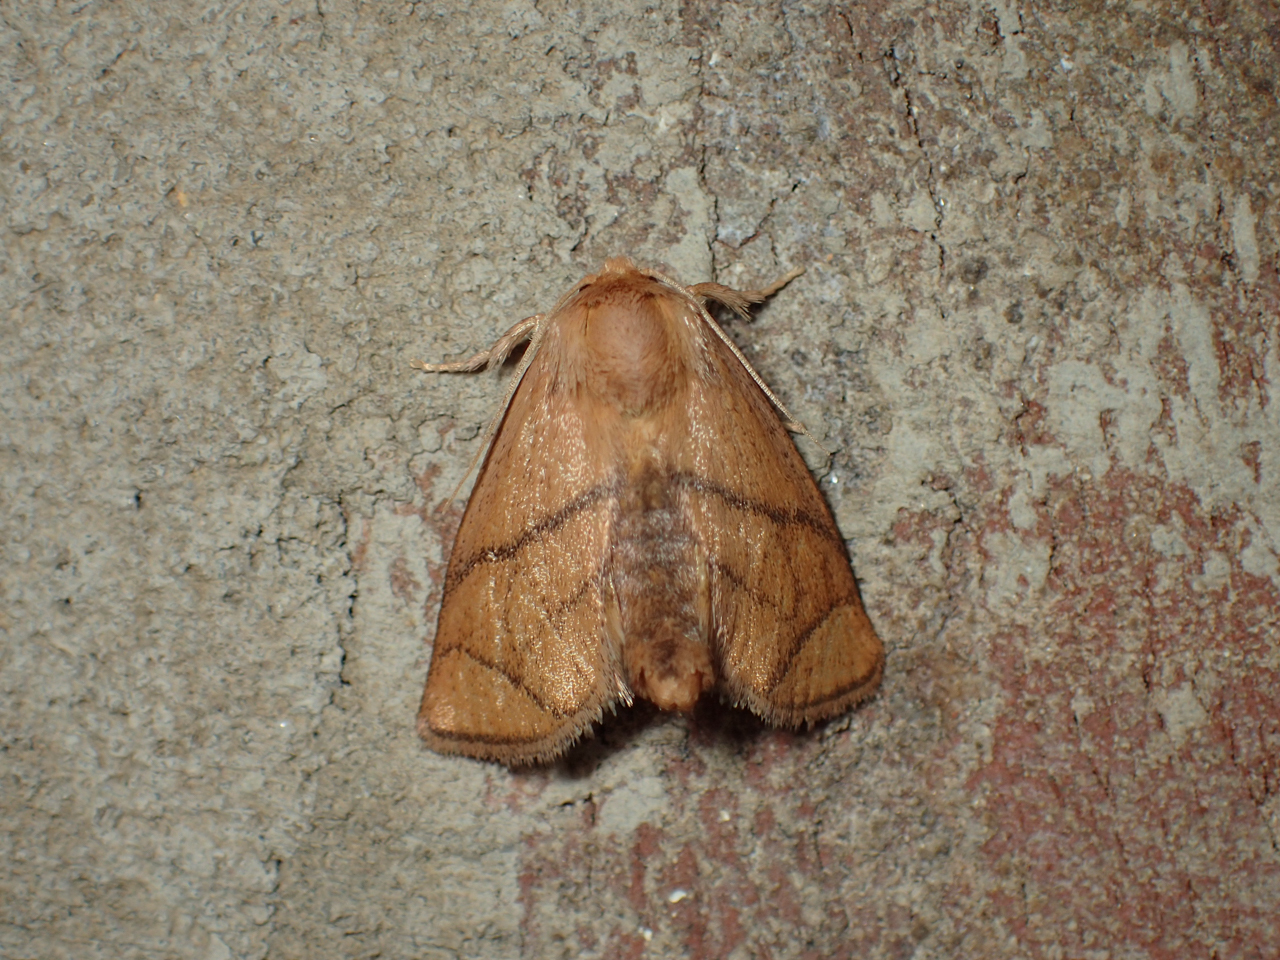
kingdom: Animalia
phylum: Arthropoda
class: Insecta
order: Lepidoptera
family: Limacodidae
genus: Apoda
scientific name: Apoda y-inversa
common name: Yellow-collared slug moth
